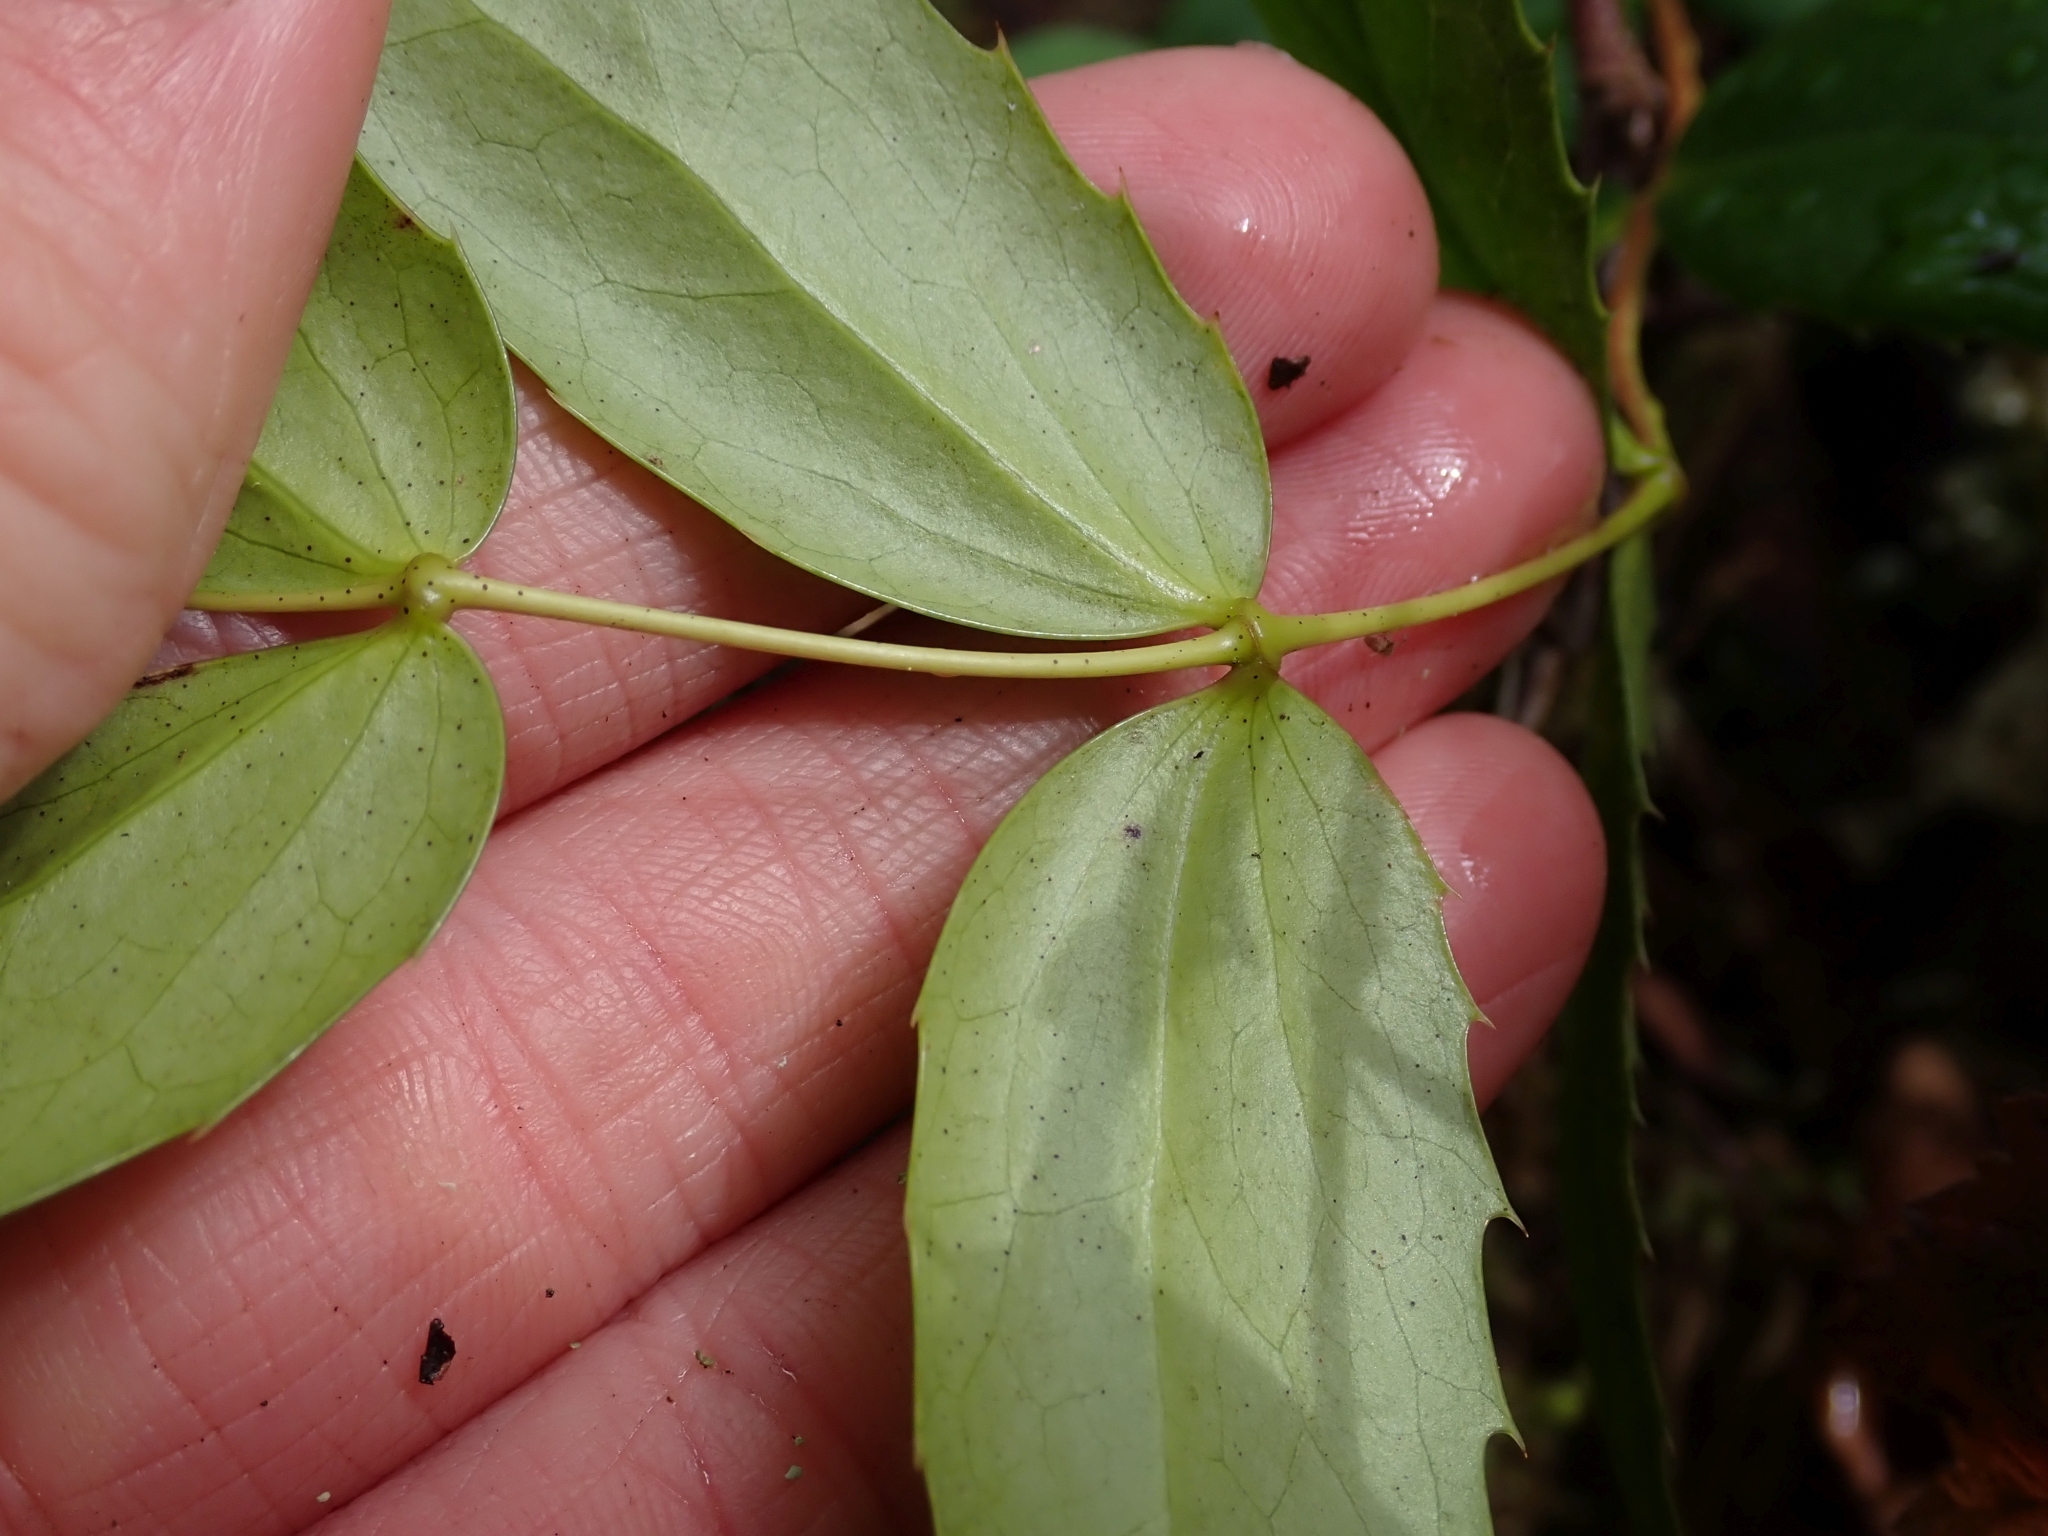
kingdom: Plantae
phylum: Tracheophyta
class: Magnoliopsida
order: Ranunculales
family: Berberidaceae
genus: Mahonia
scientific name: Mahonia nervosa
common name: Cascade oregon-grape
